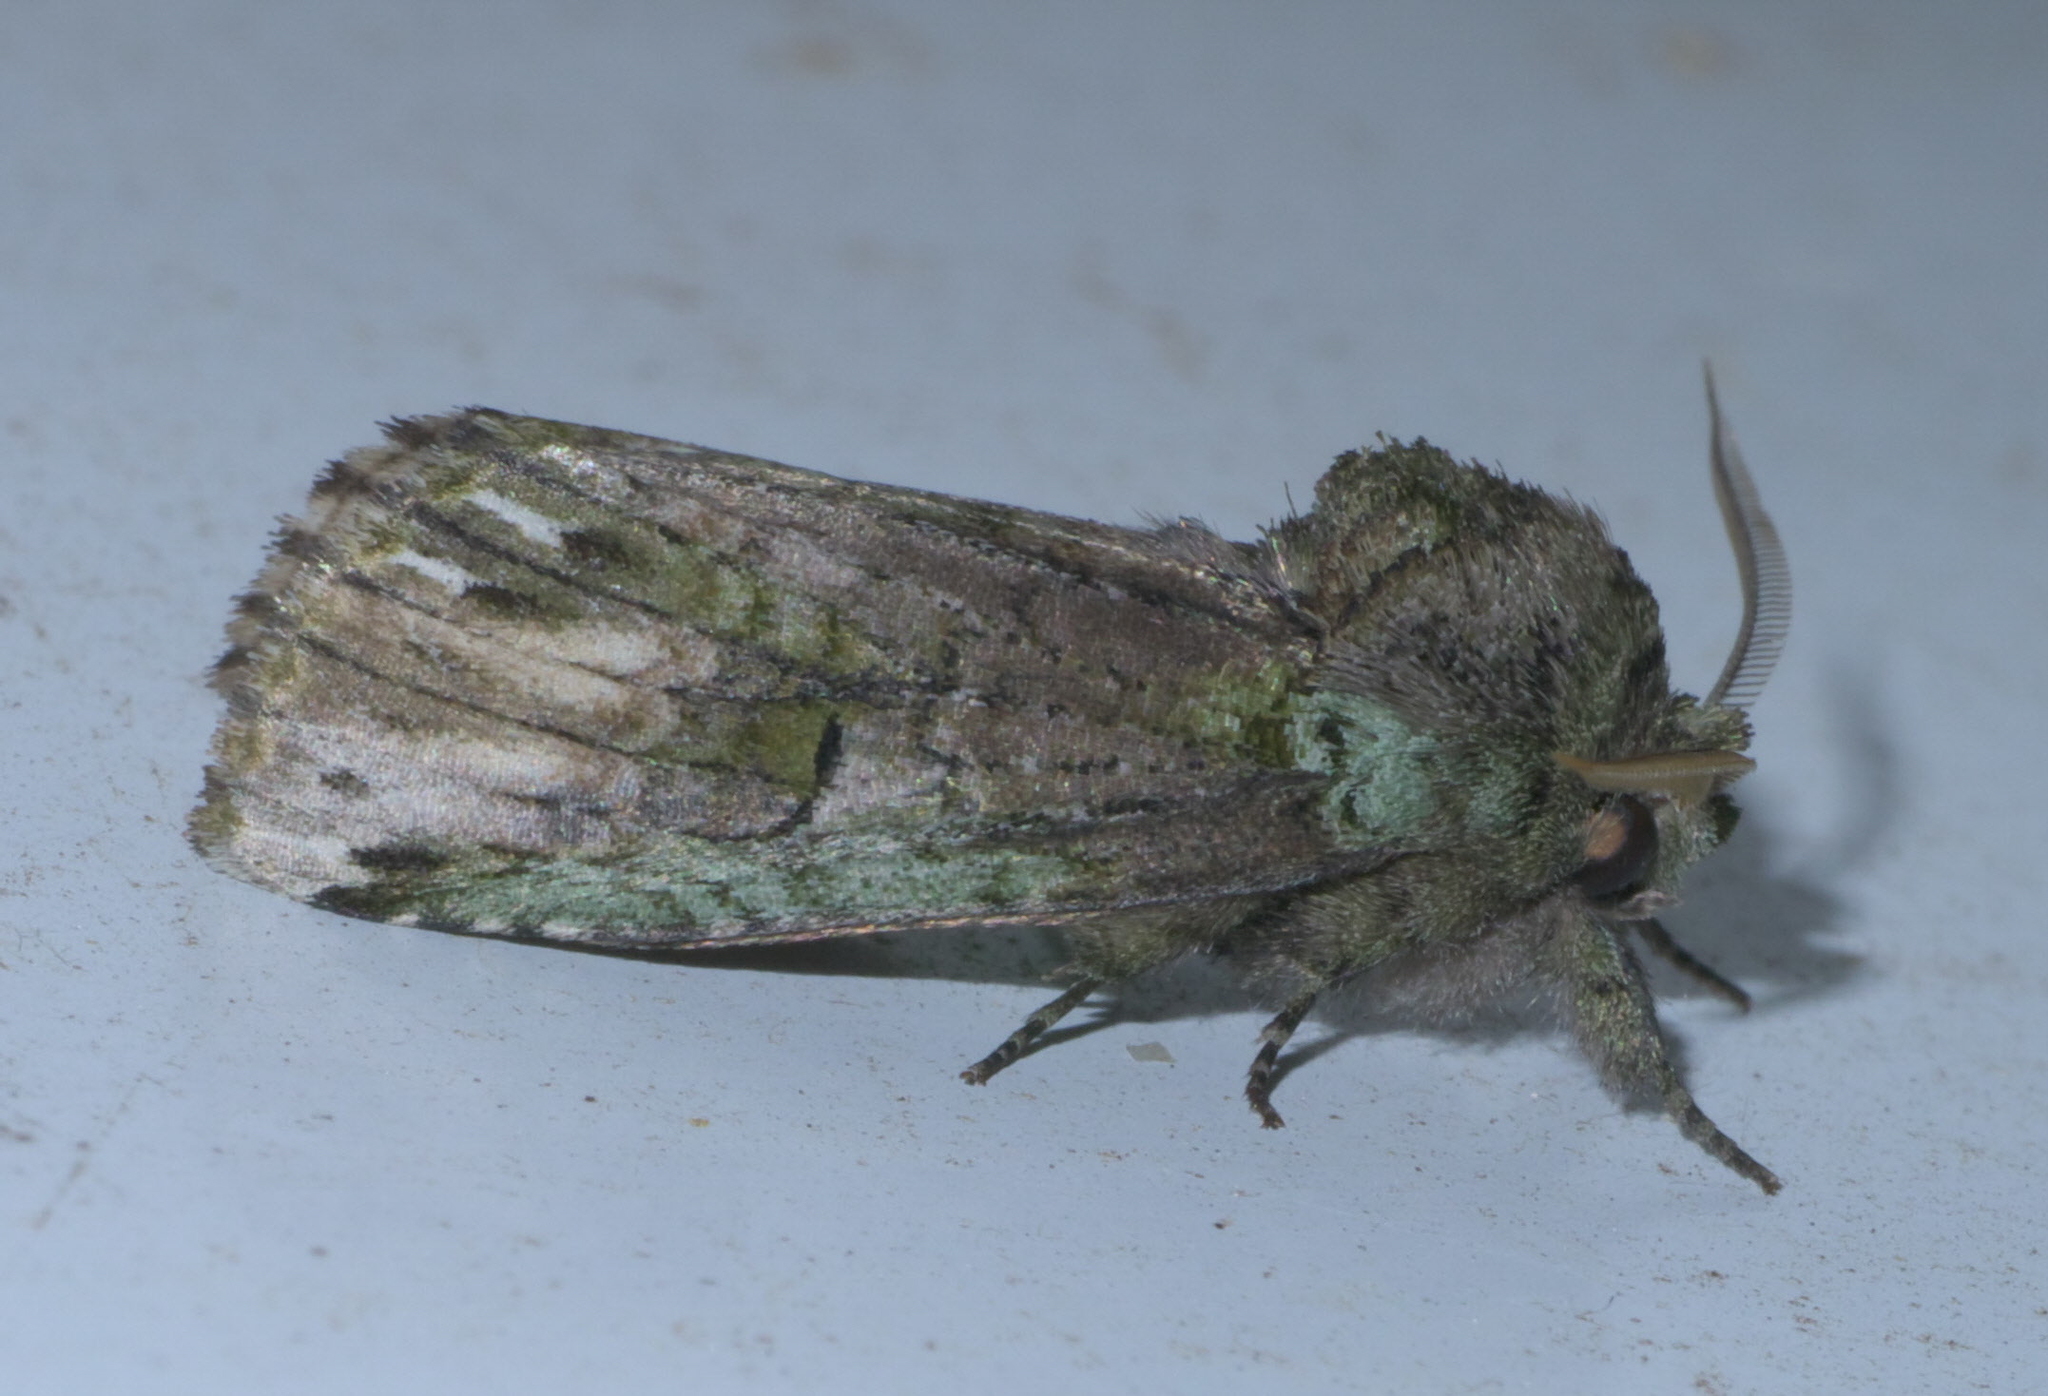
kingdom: Animalia
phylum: Arthropoda
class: Insecta
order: Lepidoptera
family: Notodontidae
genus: Schizura
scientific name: Schizura
